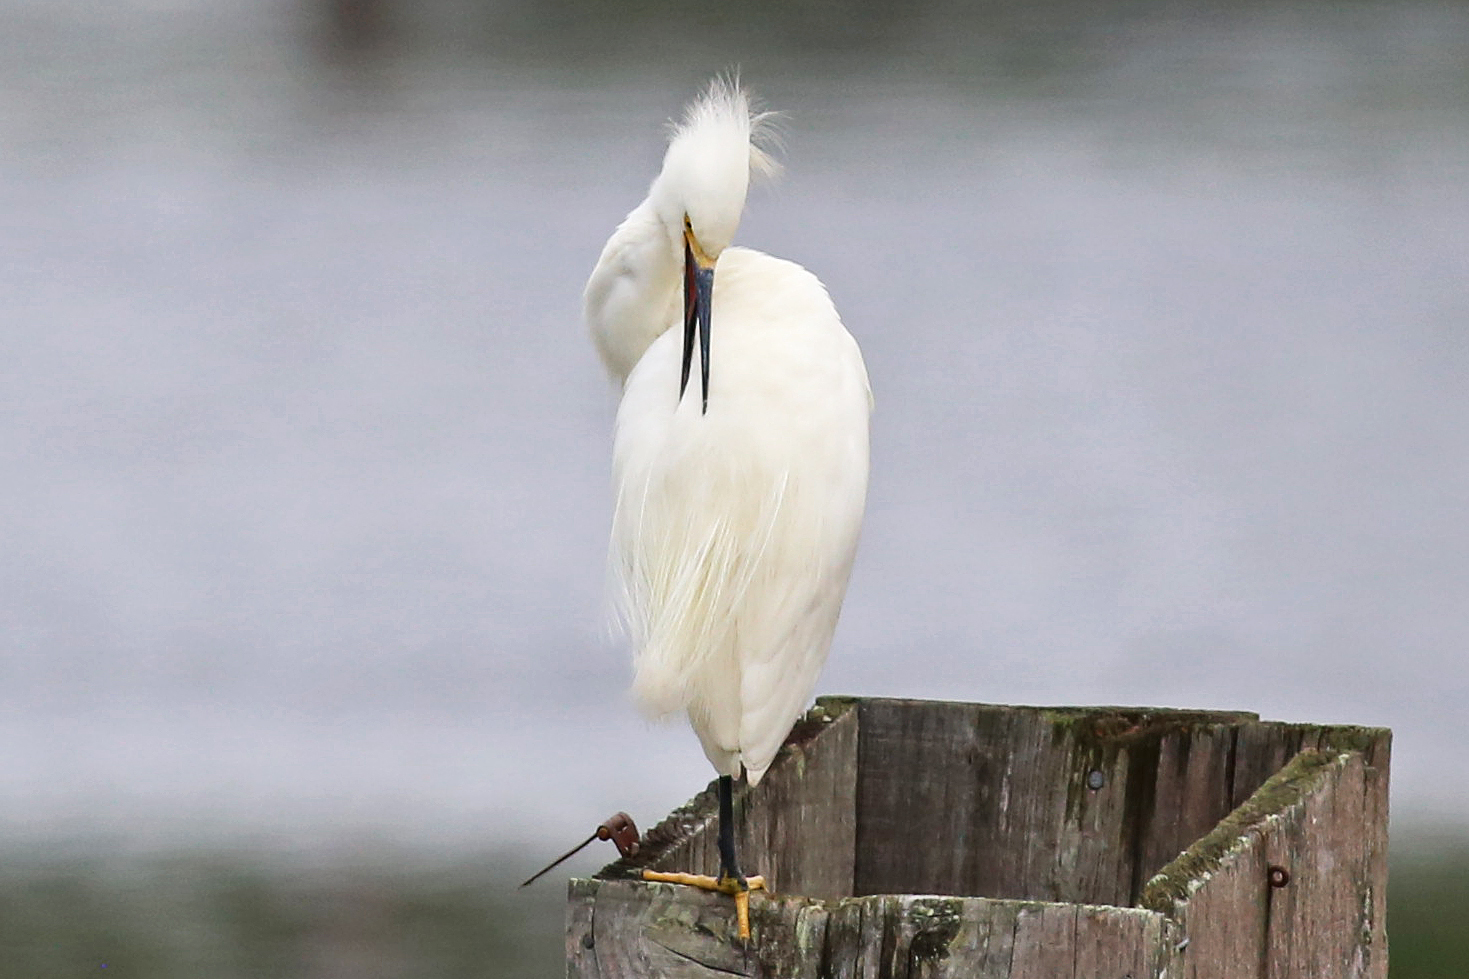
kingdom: Animalia
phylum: Chordata
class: Aves
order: Pelecaniformes
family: Ardeidae
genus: Egretta
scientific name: Egretta thula
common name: Snowy egret
